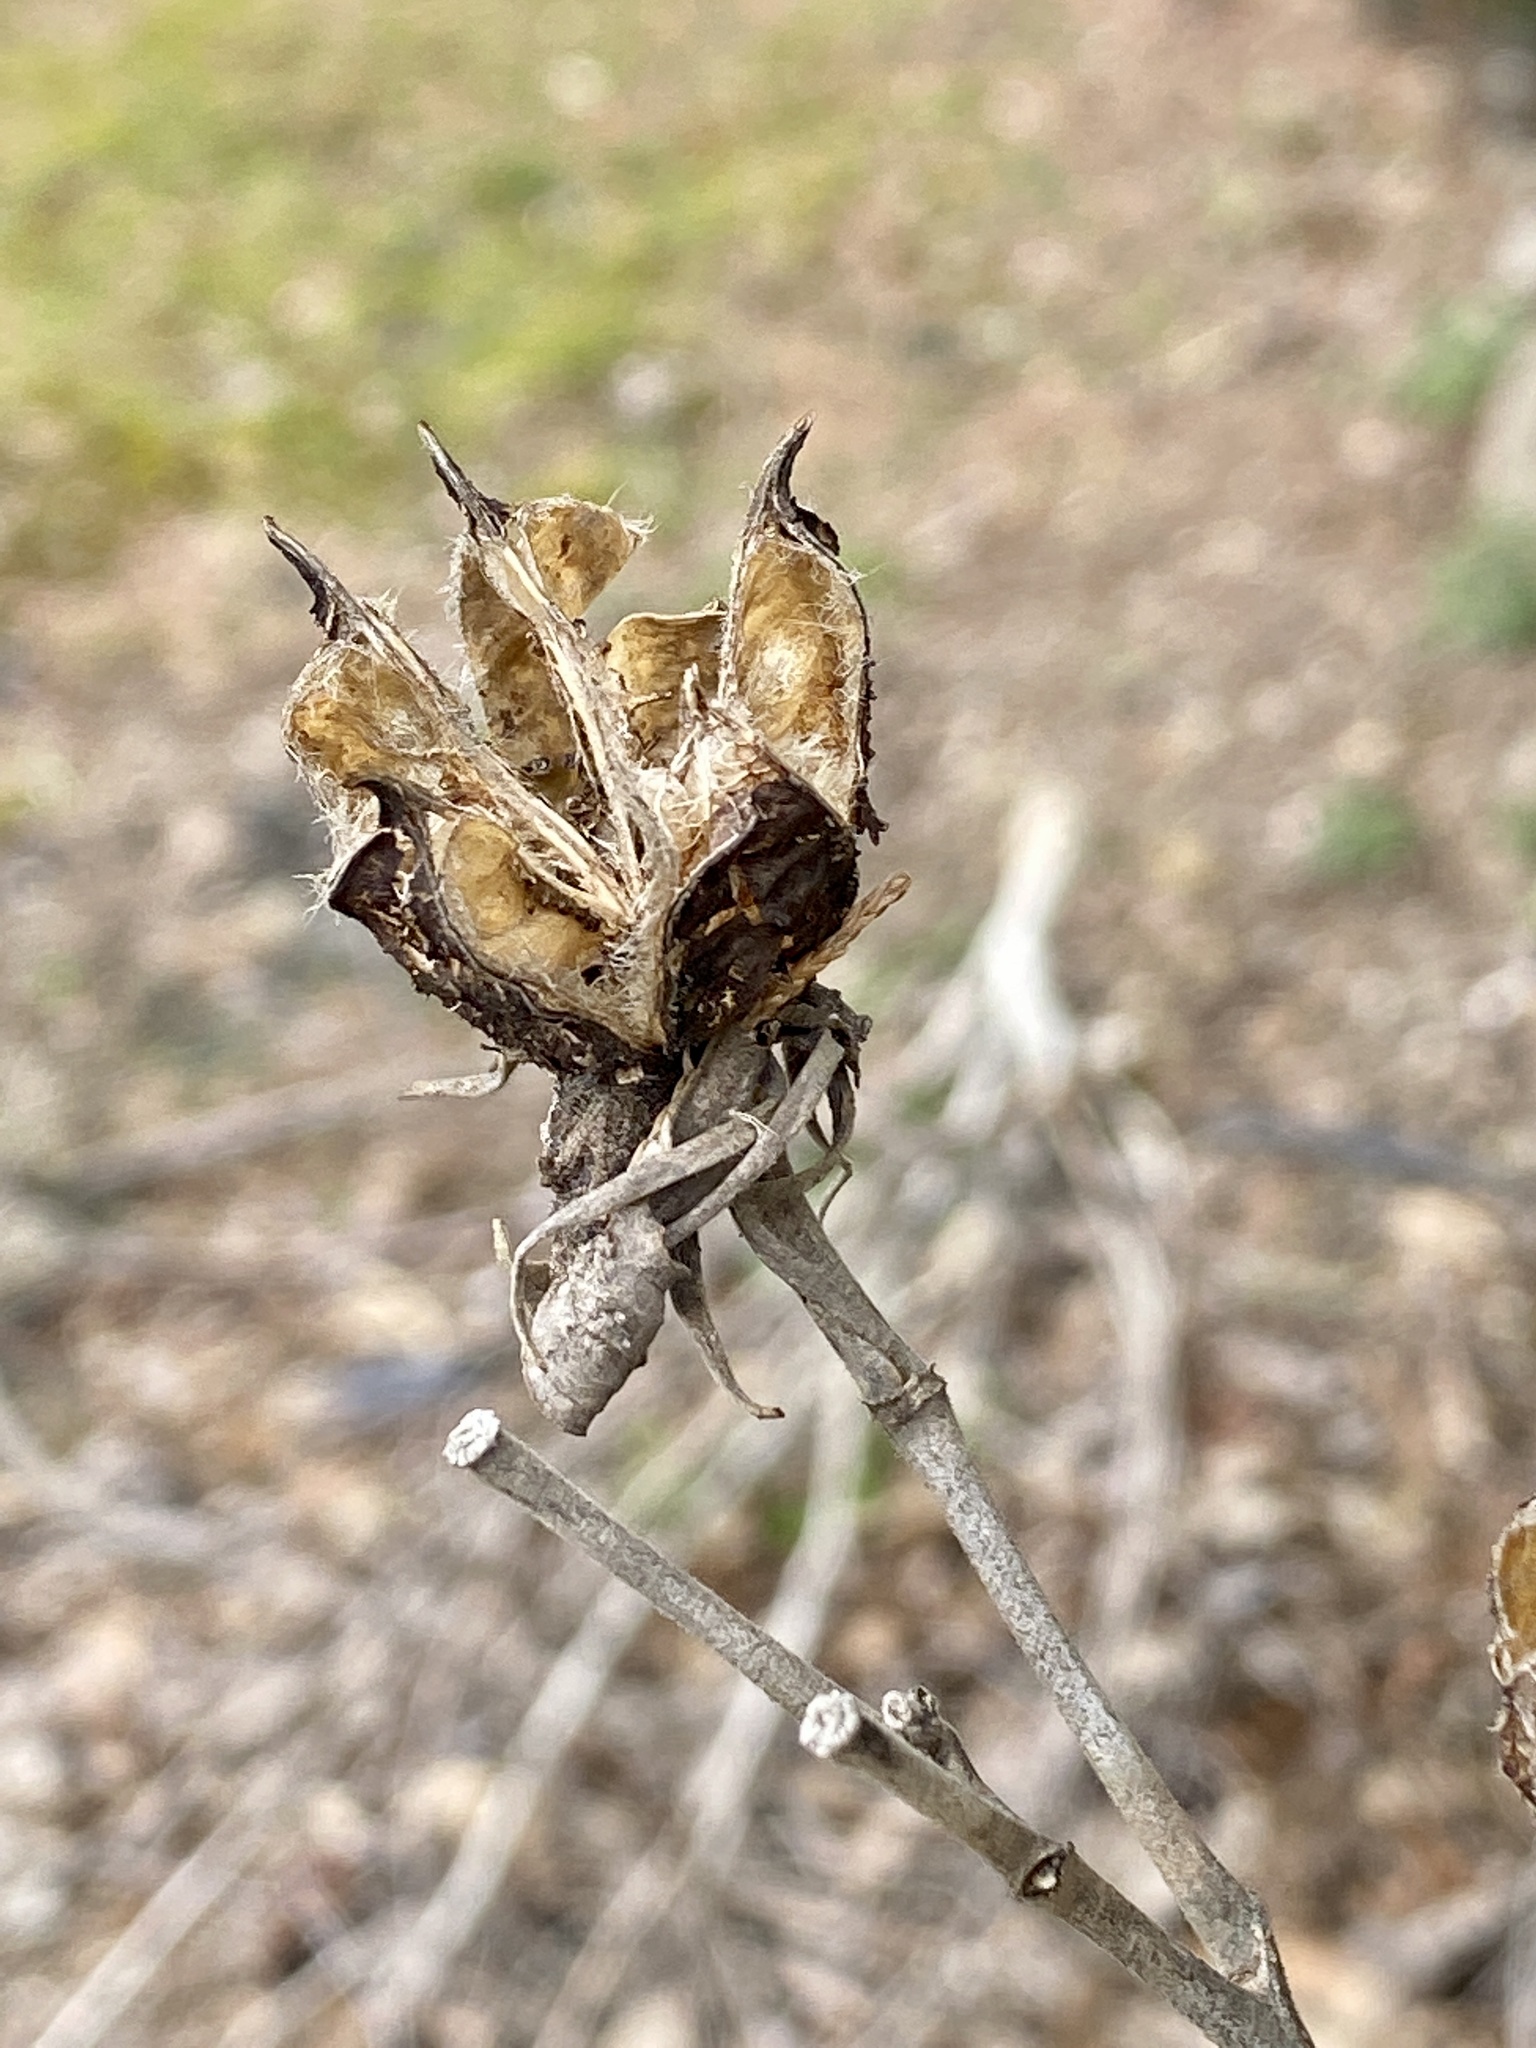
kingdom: Plantae
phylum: Tracheophyta
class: Magnoliopsida
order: Malvales
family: Malvaceae
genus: Hibiscus
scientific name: Hibiscus moscheutos
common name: Common rose-mallow
